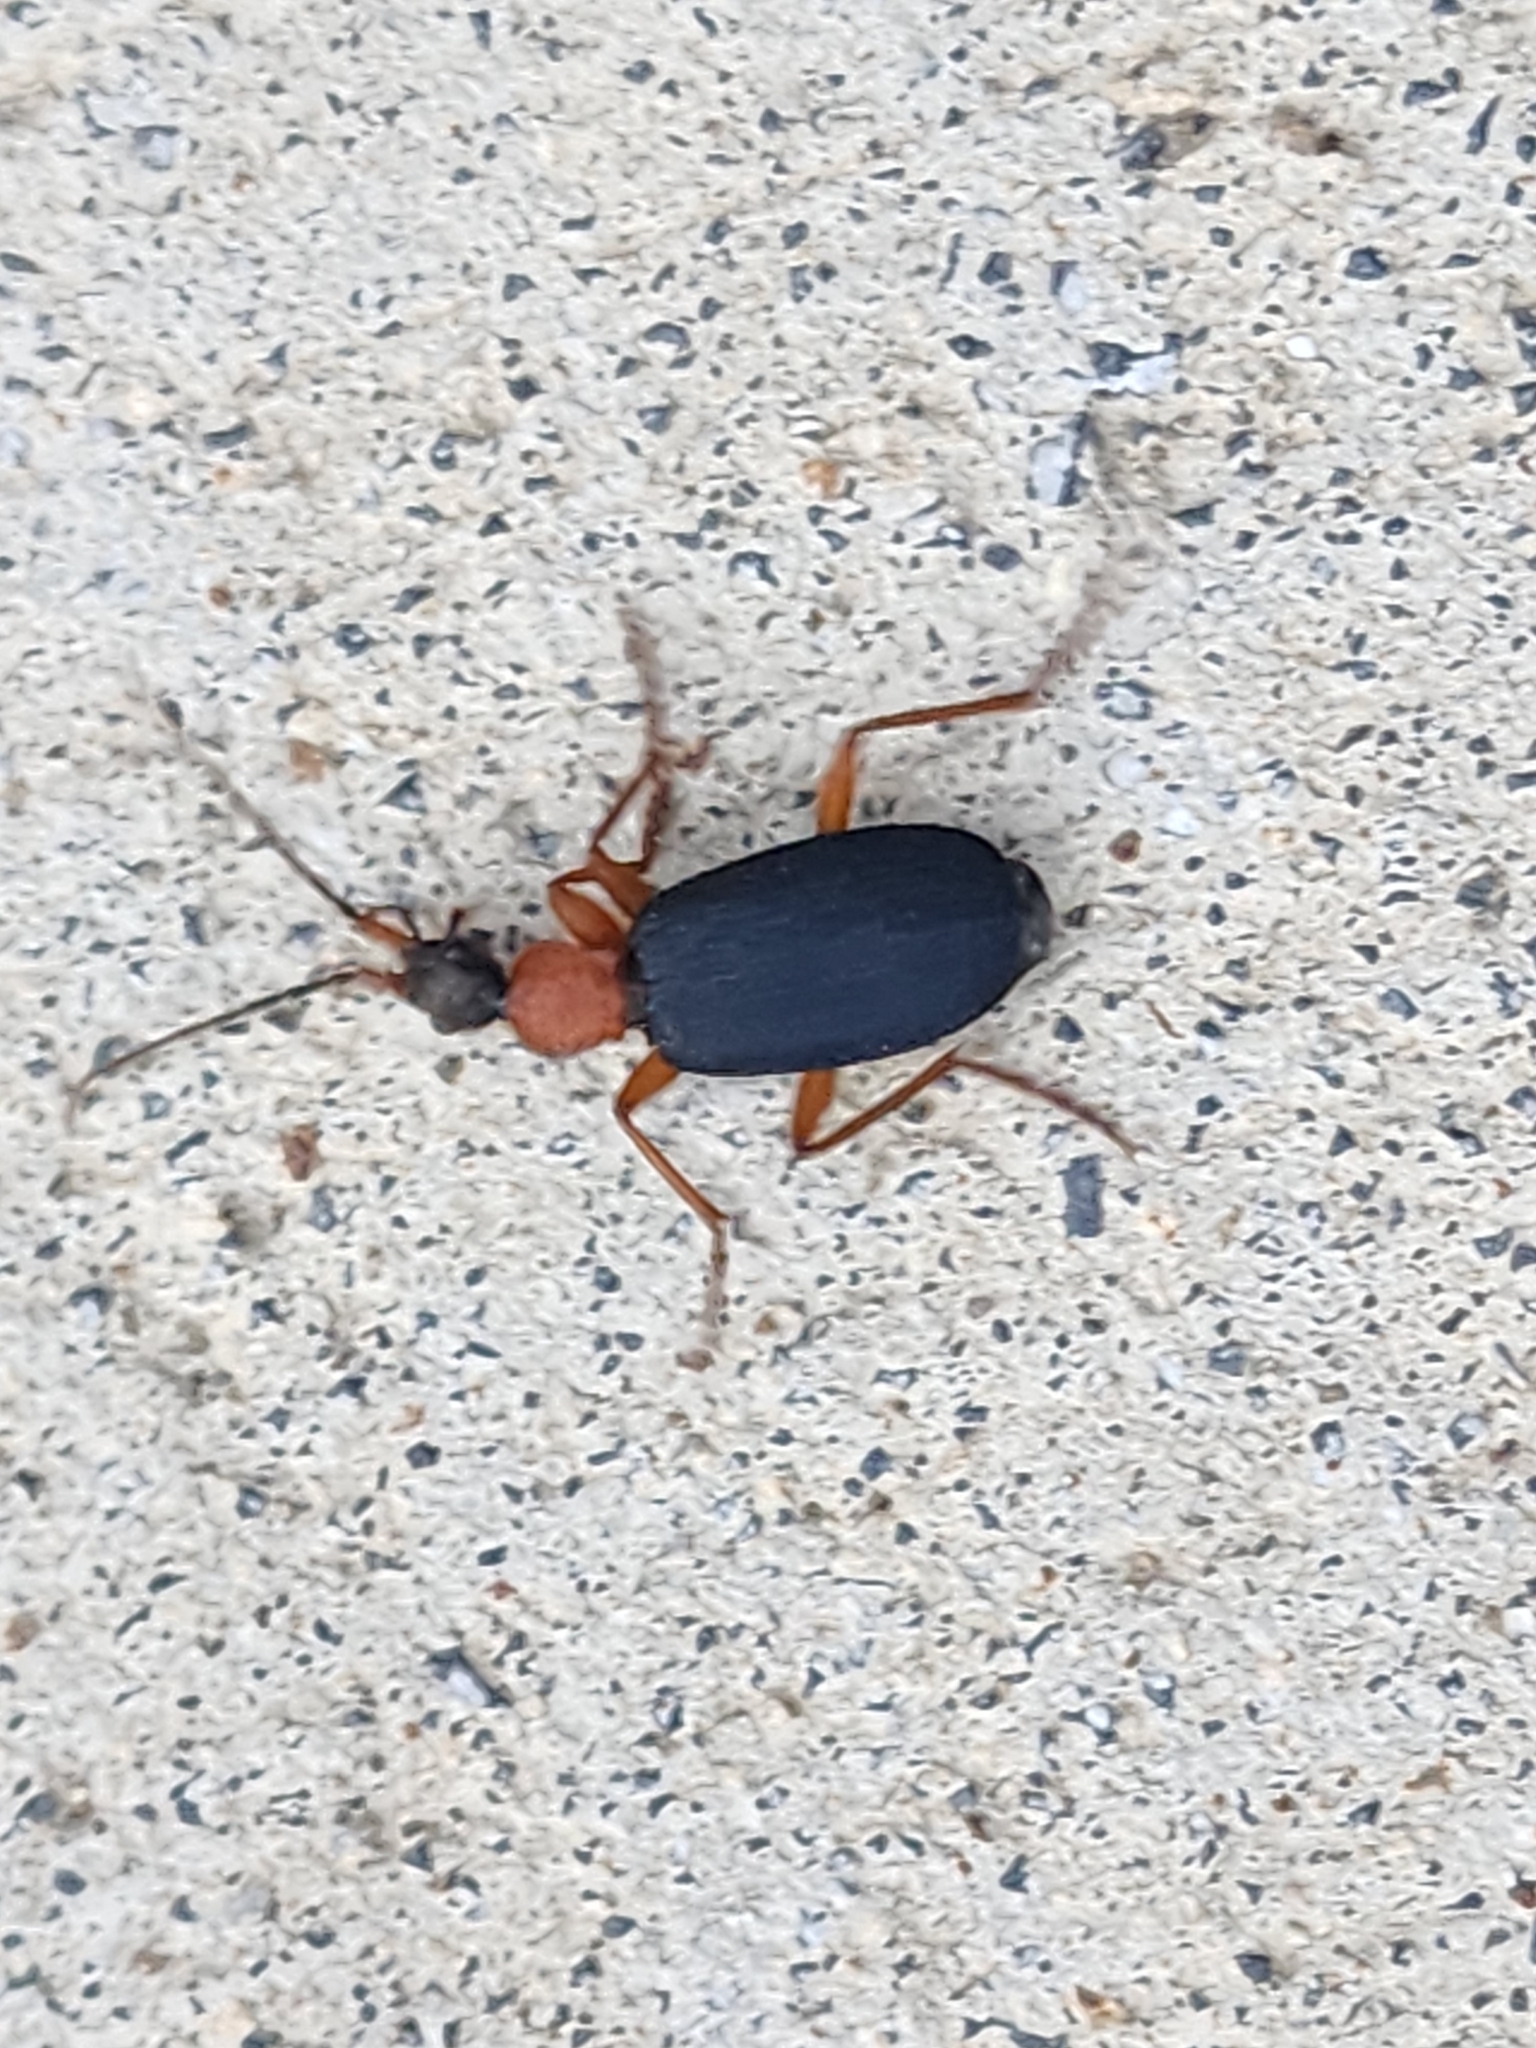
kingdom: Animalia
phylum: Arthropoda
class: Insecta
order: Coleoptera
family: Carabidae
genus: Galerita
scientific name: Galerita bicolor
